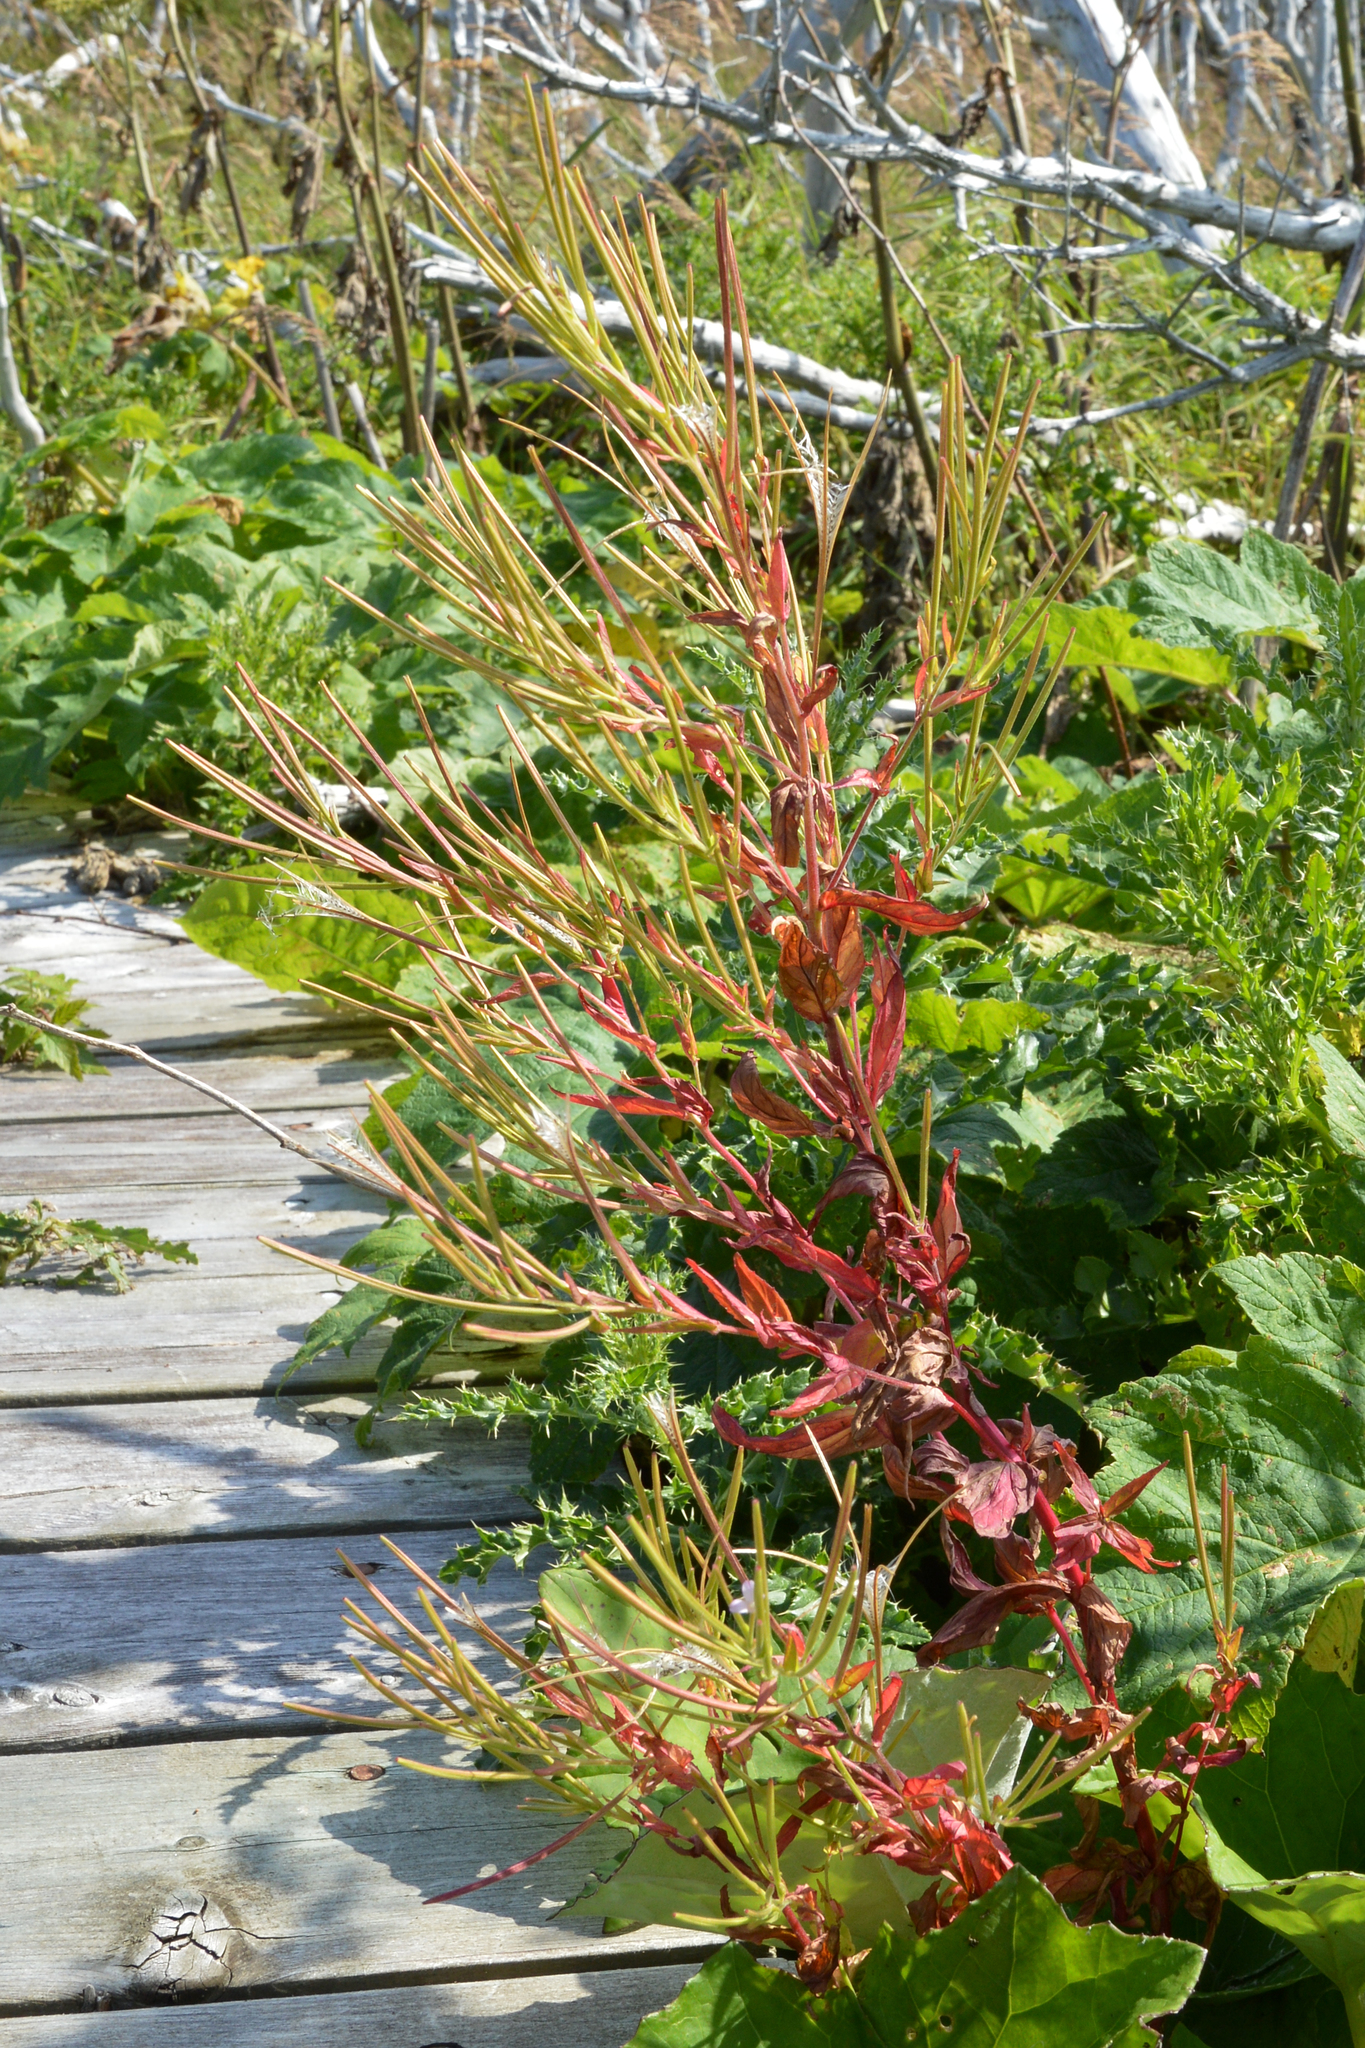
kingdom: Plantae
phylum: Tracheophyta
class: Magnoliopsida
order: Myrtales
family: Onagraceae
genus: Epilobium
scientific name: Epilobium ciliatum
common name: American willowherb
